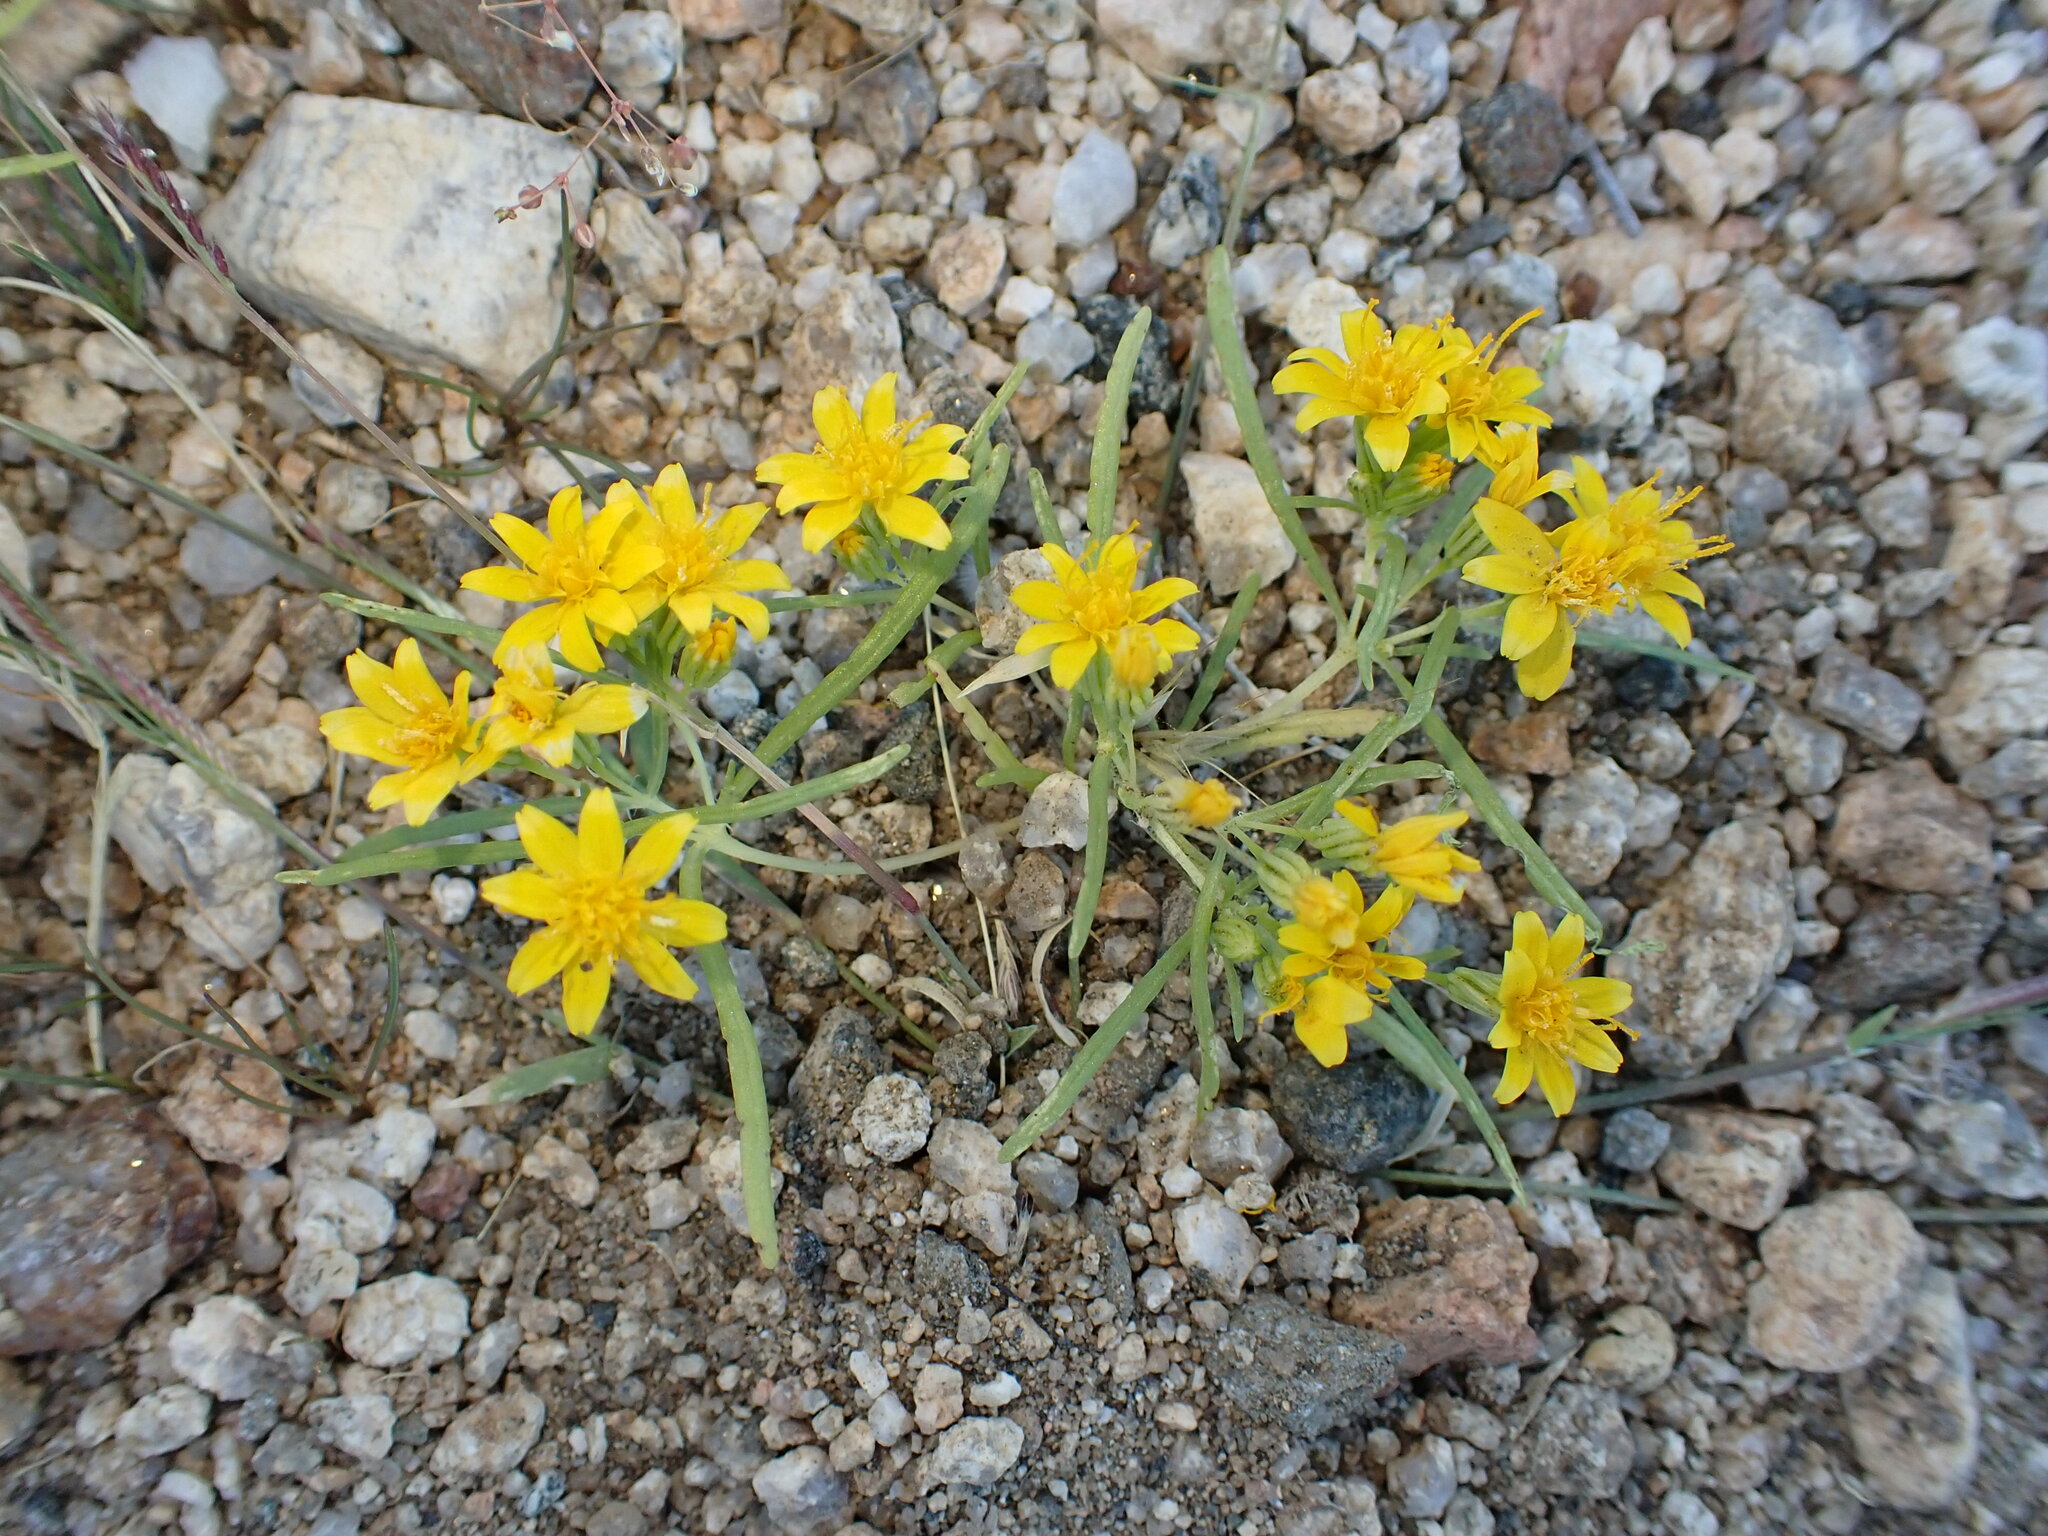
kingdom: Plantae
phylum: Tracheophyta
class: Magnoliopsida
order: Asterales
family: Asteraceae
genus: Pectis
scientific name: Pectis papposa
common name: Many-bristle chinchweed
